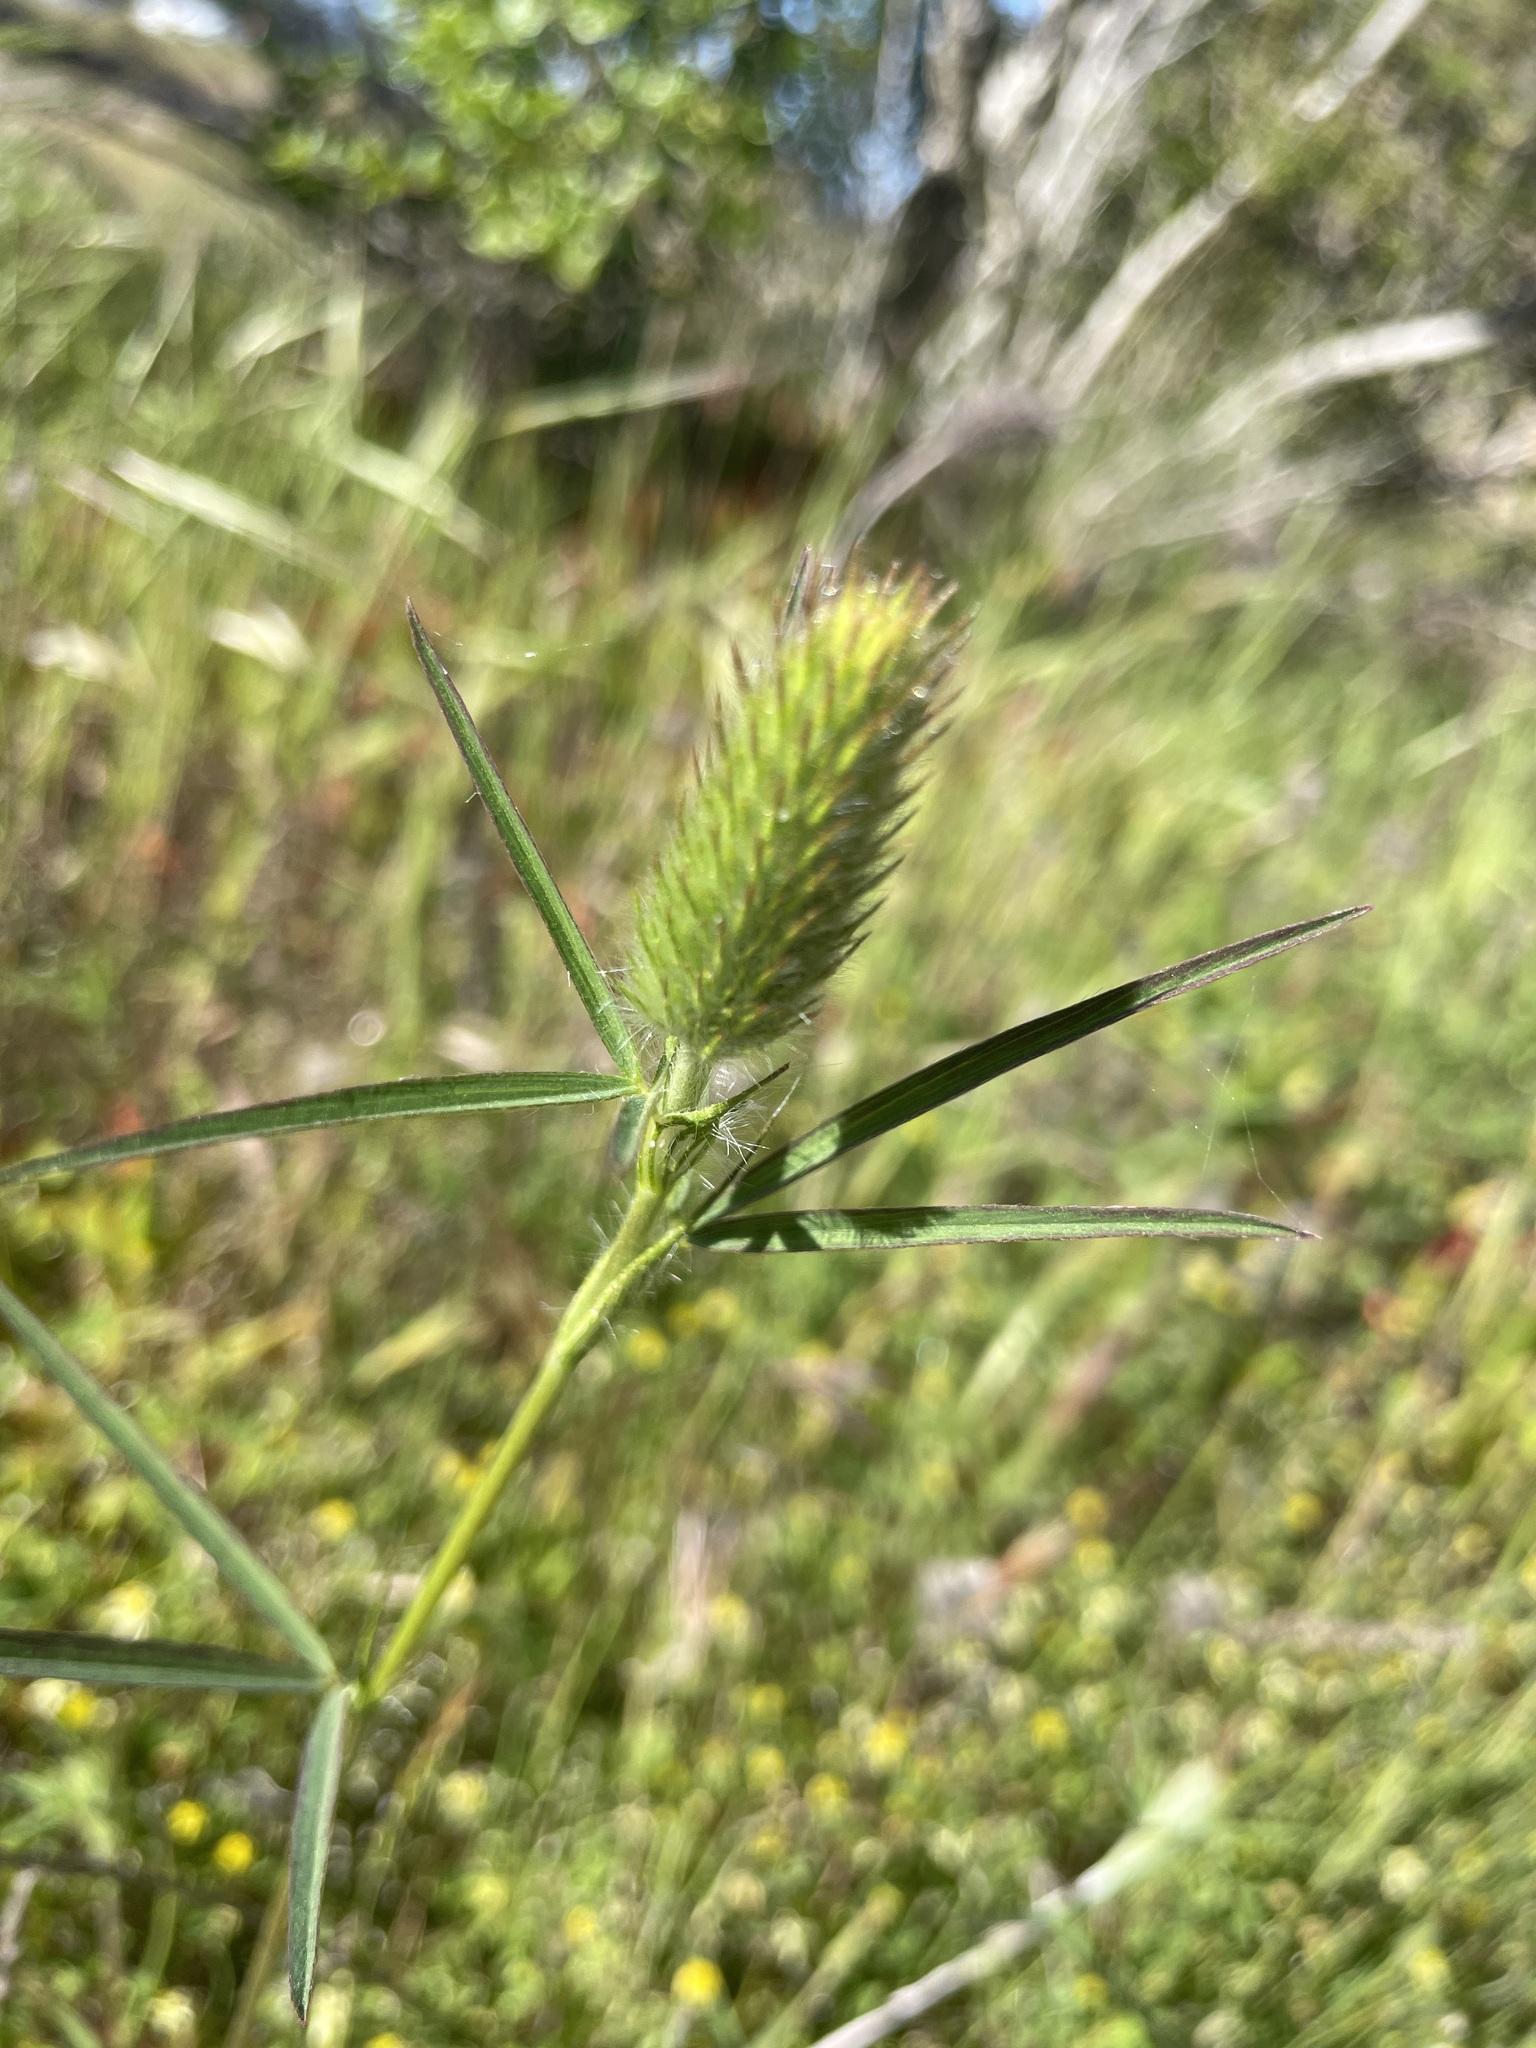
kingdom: Plantae
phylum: Tracheophyta
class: Magnoliopsida
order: Fabales
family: Fabaceae
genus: Trifolium
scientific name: Trifolium angustifolium
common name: Narrow clover
